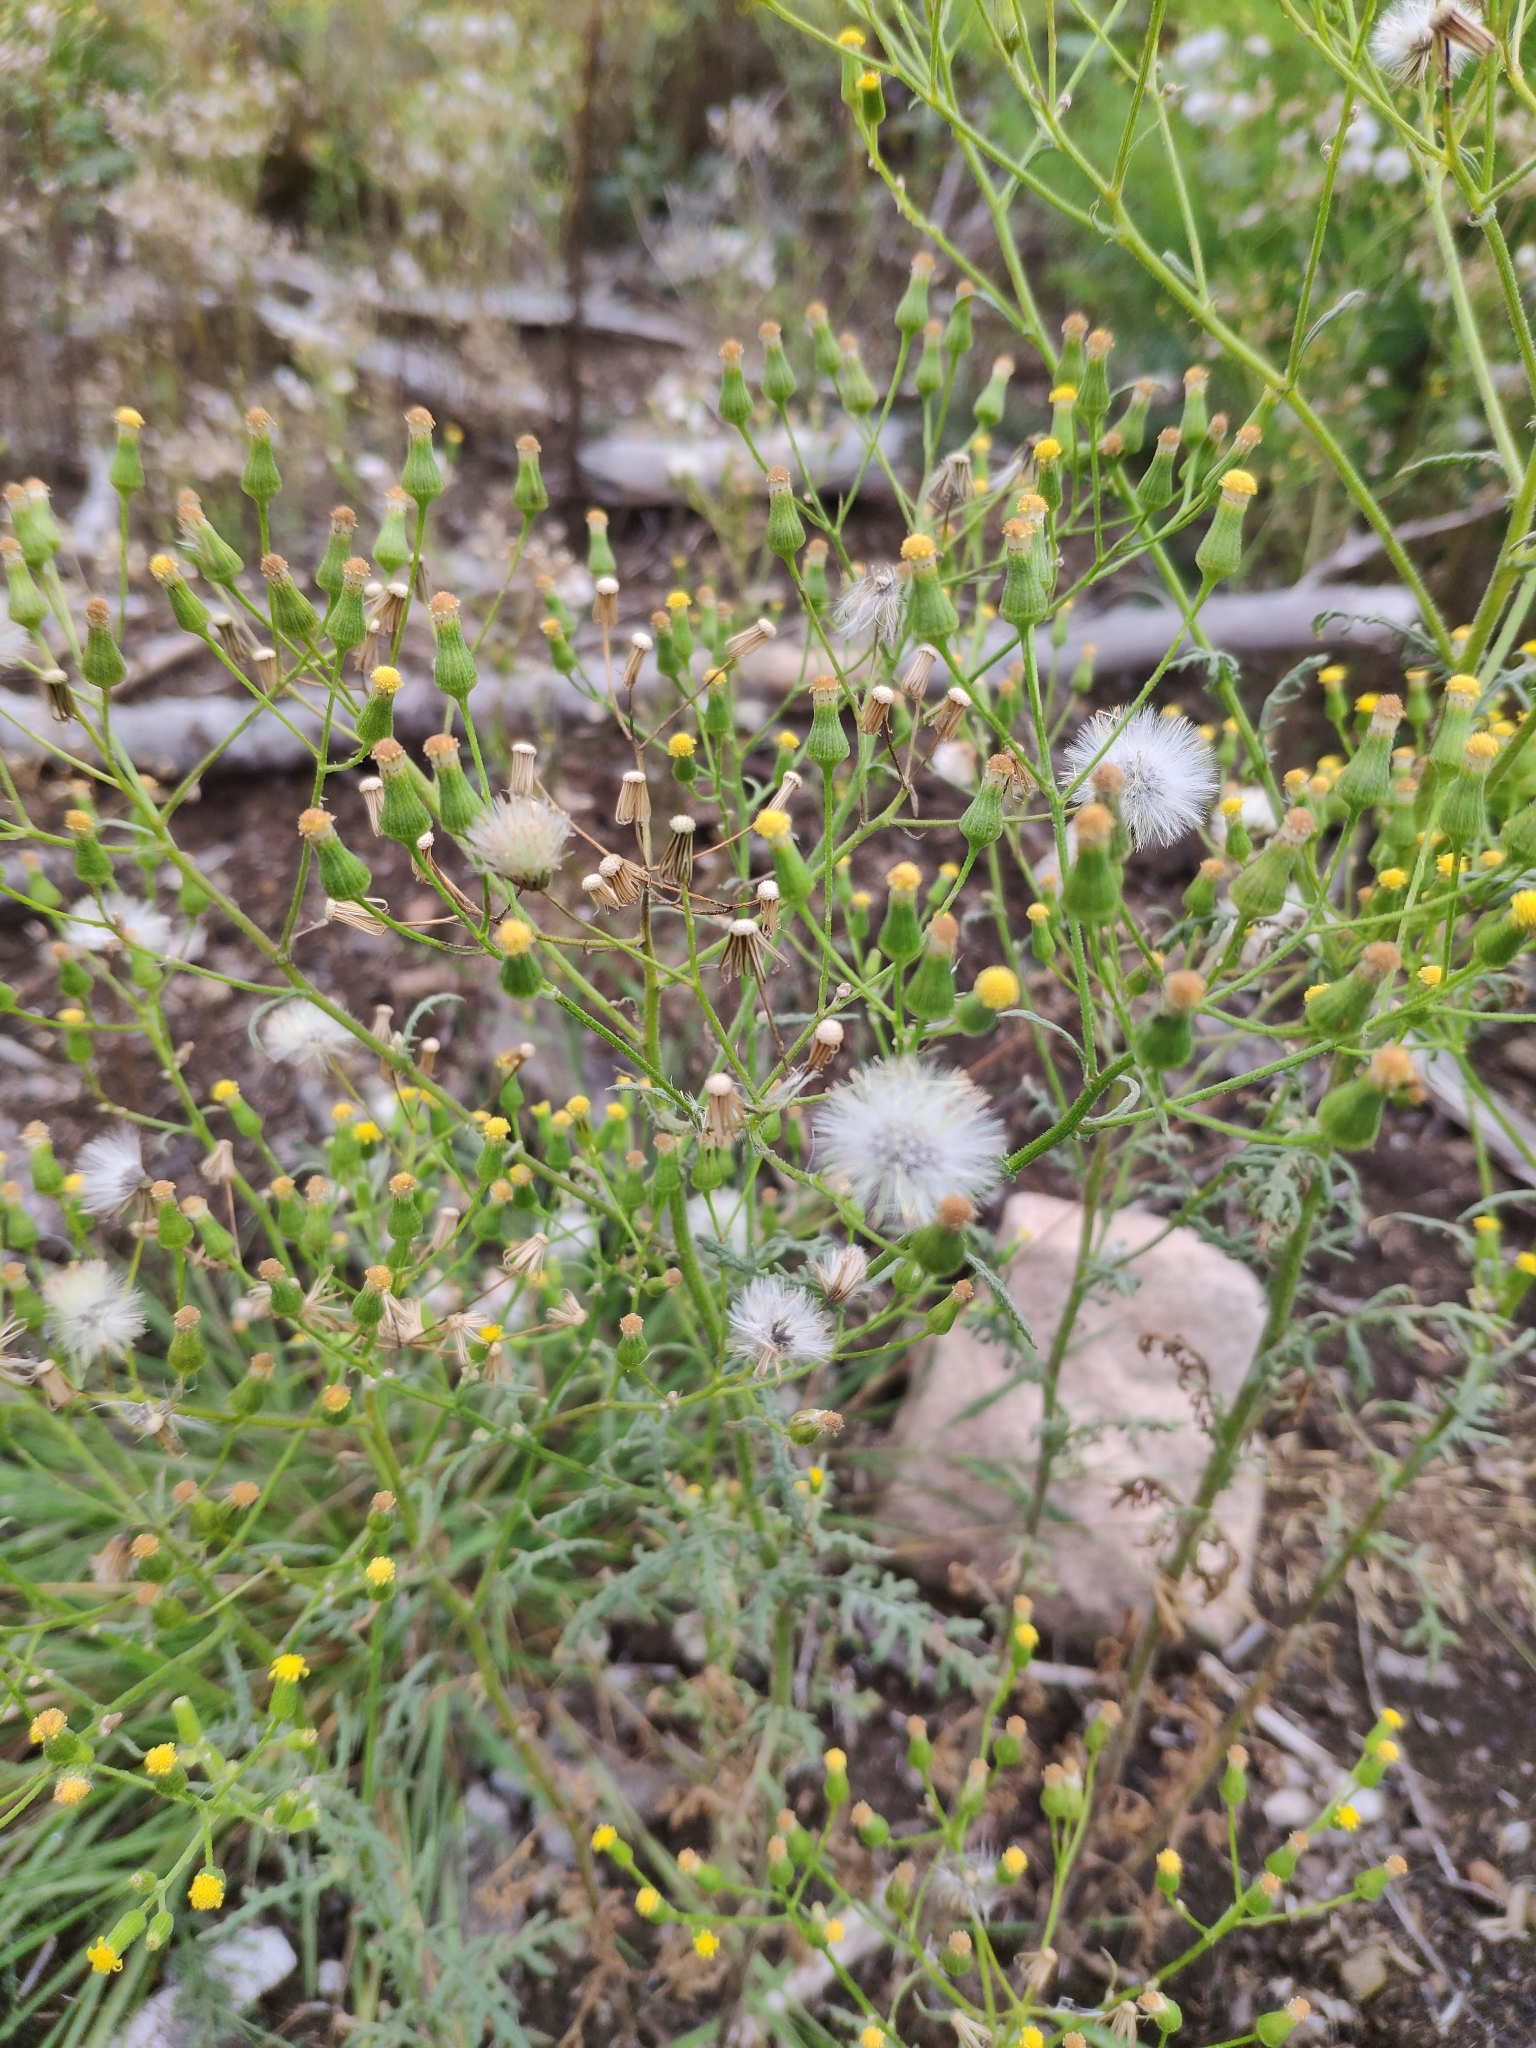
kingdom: Plantae
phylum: Tracheophyta
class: Magnoliopsida
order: Asterales
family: Asteraceae
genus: Senecio
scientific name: Senecio sylvaticus
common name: Woodland ragwort
